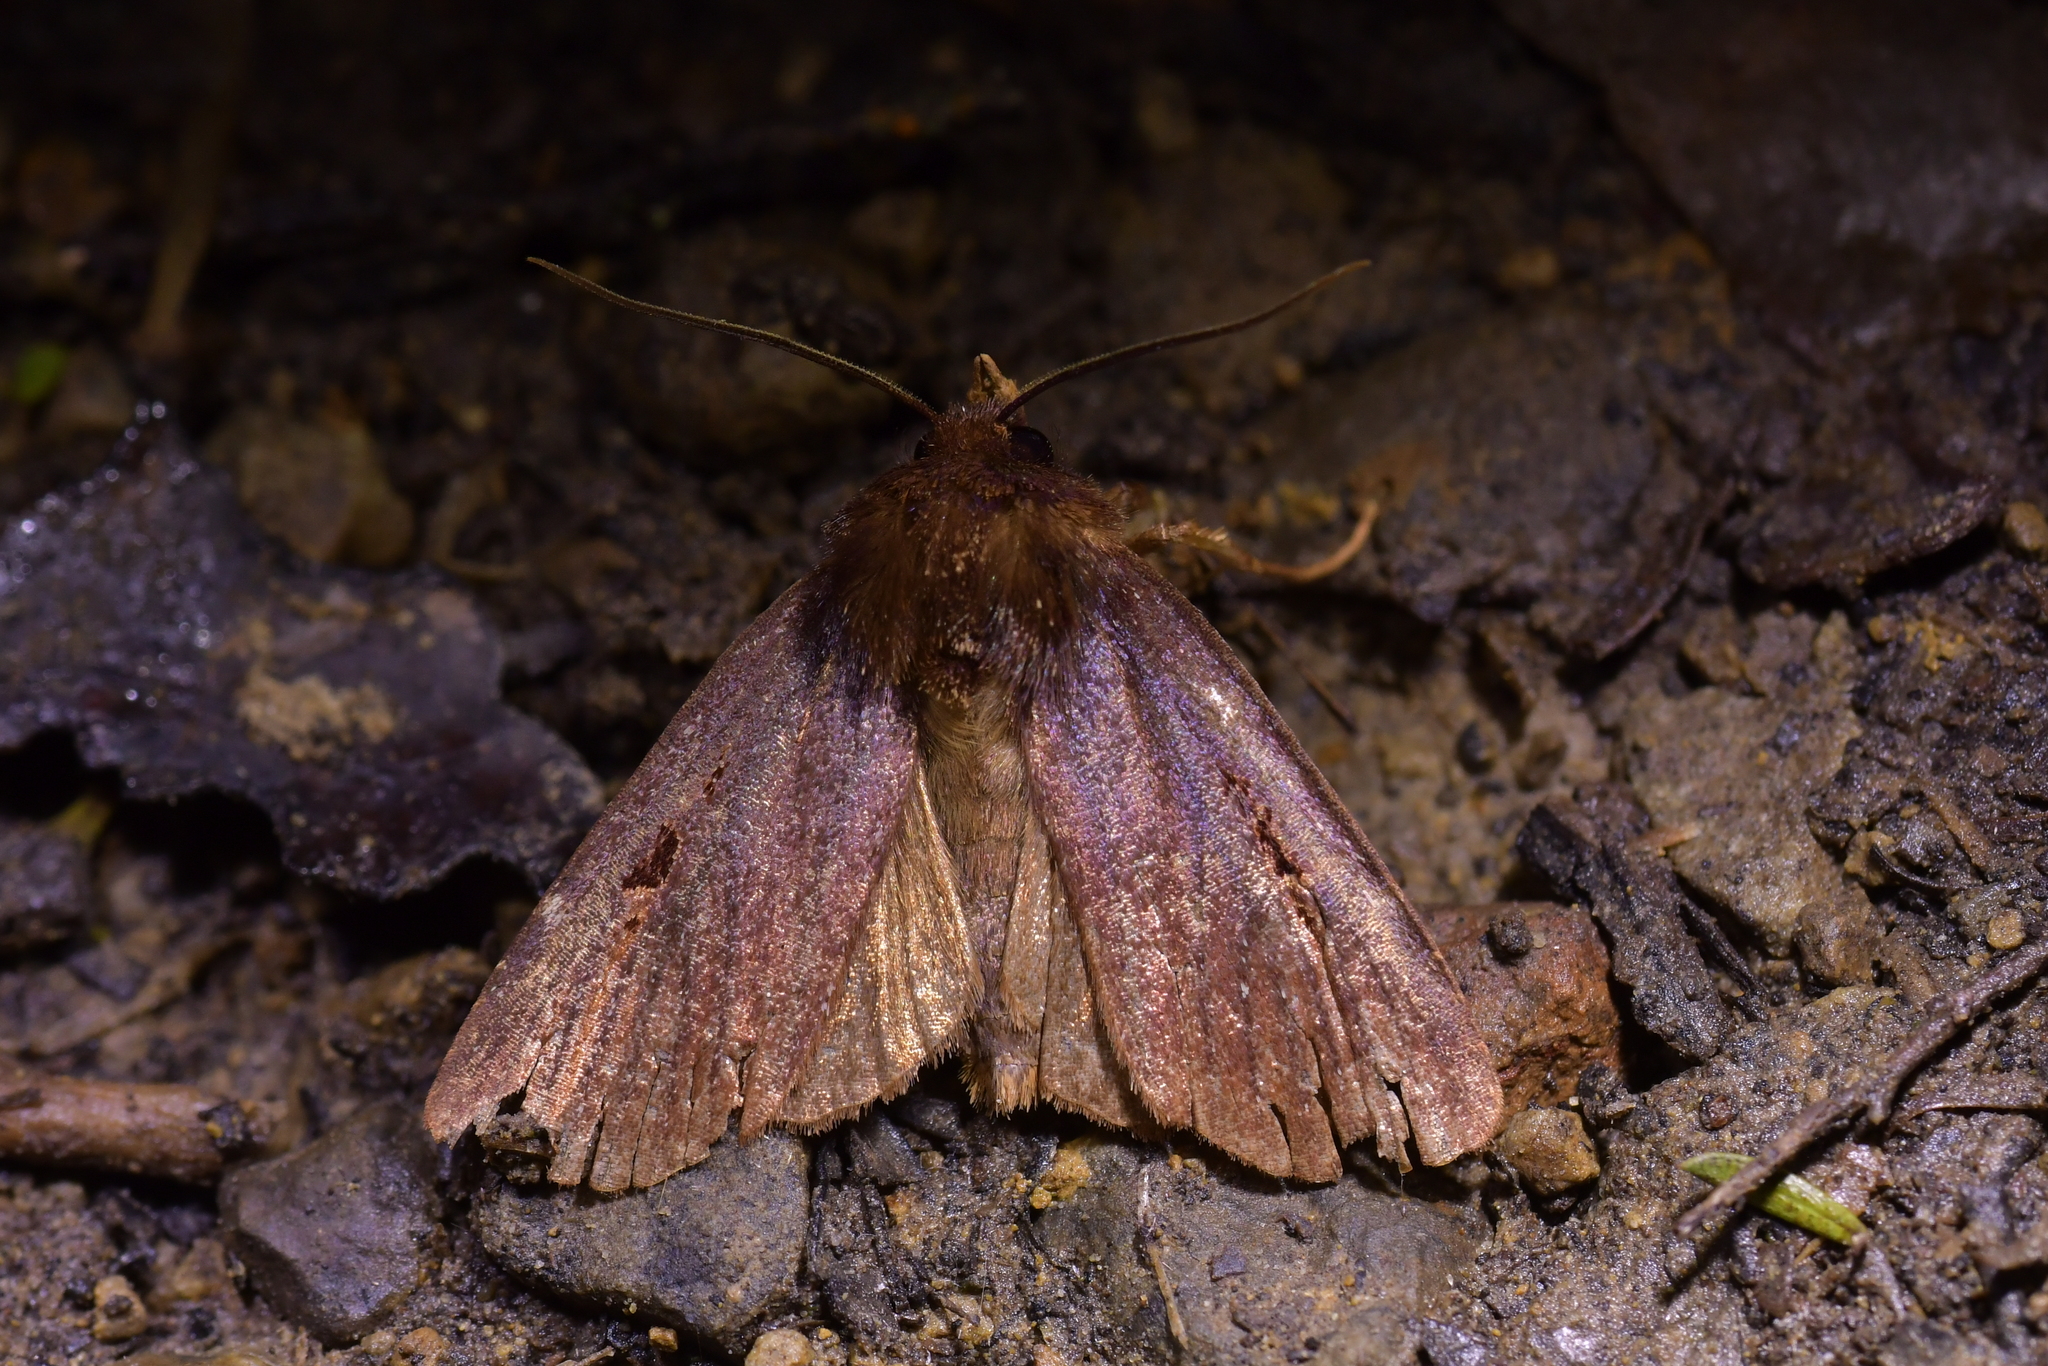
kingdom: Animalia
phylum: Arthropoda
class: Insecta
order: Lepidoptera
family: Noctuidae
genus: Austramathes
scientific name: Austramathes purpurea
